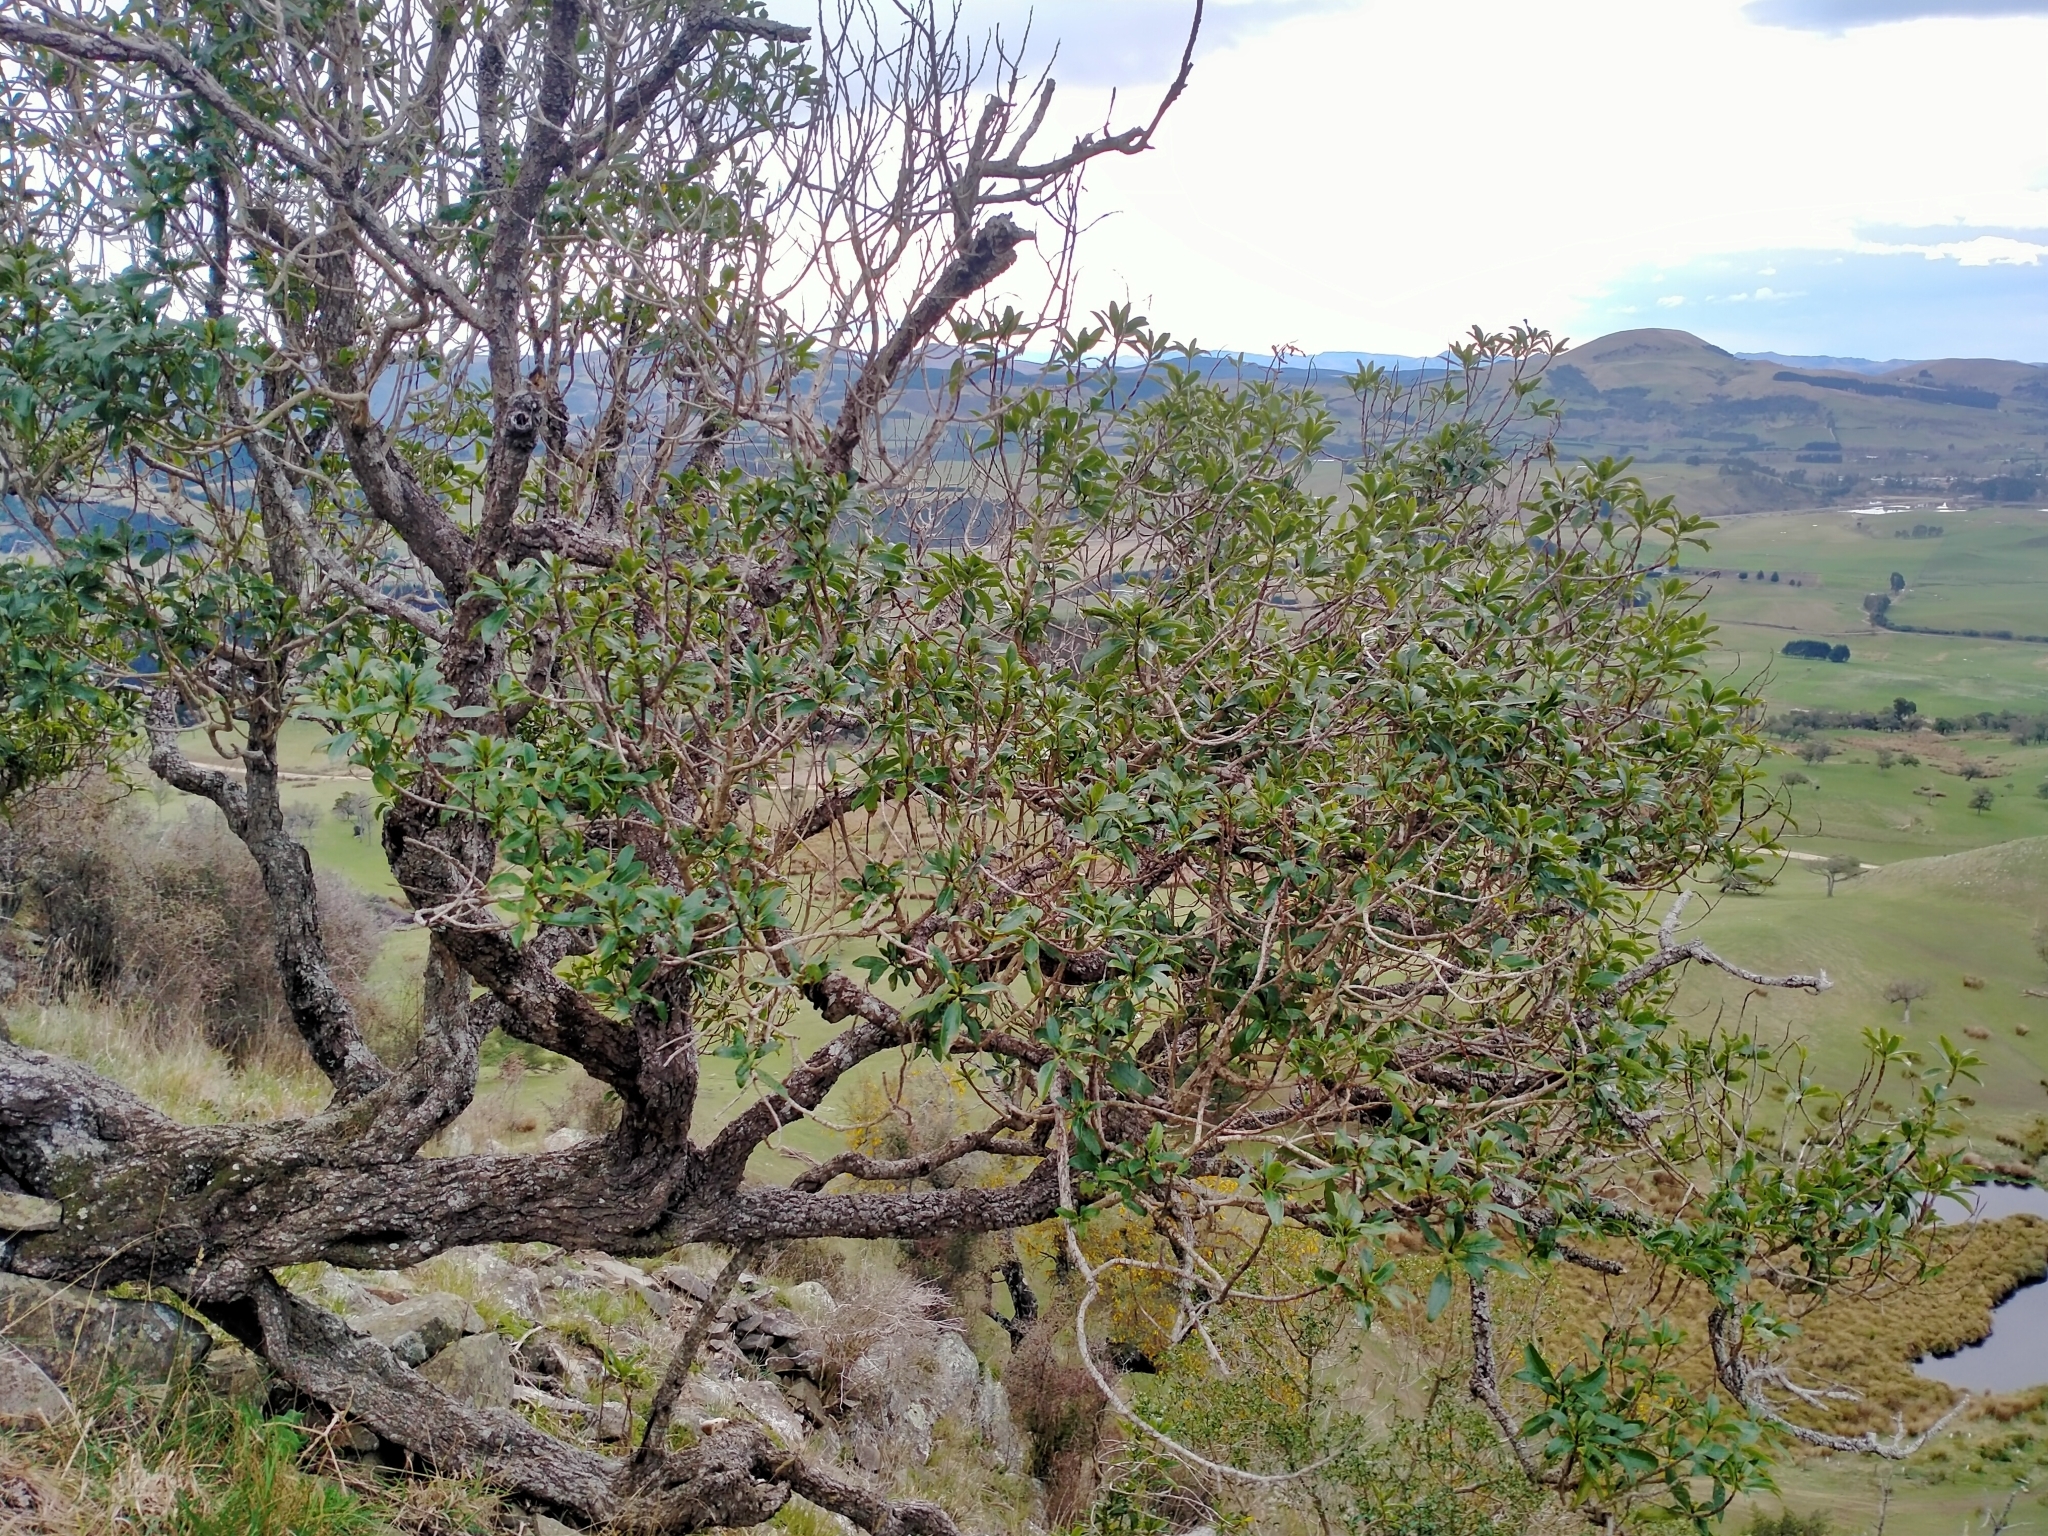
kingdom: Plantae
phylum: Tracheophyta
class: Magnoliopsida
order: Lamiales
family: Scrophulariaceae
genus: Myoporum
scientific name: Myoporum laetum
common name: Ngaio tree
